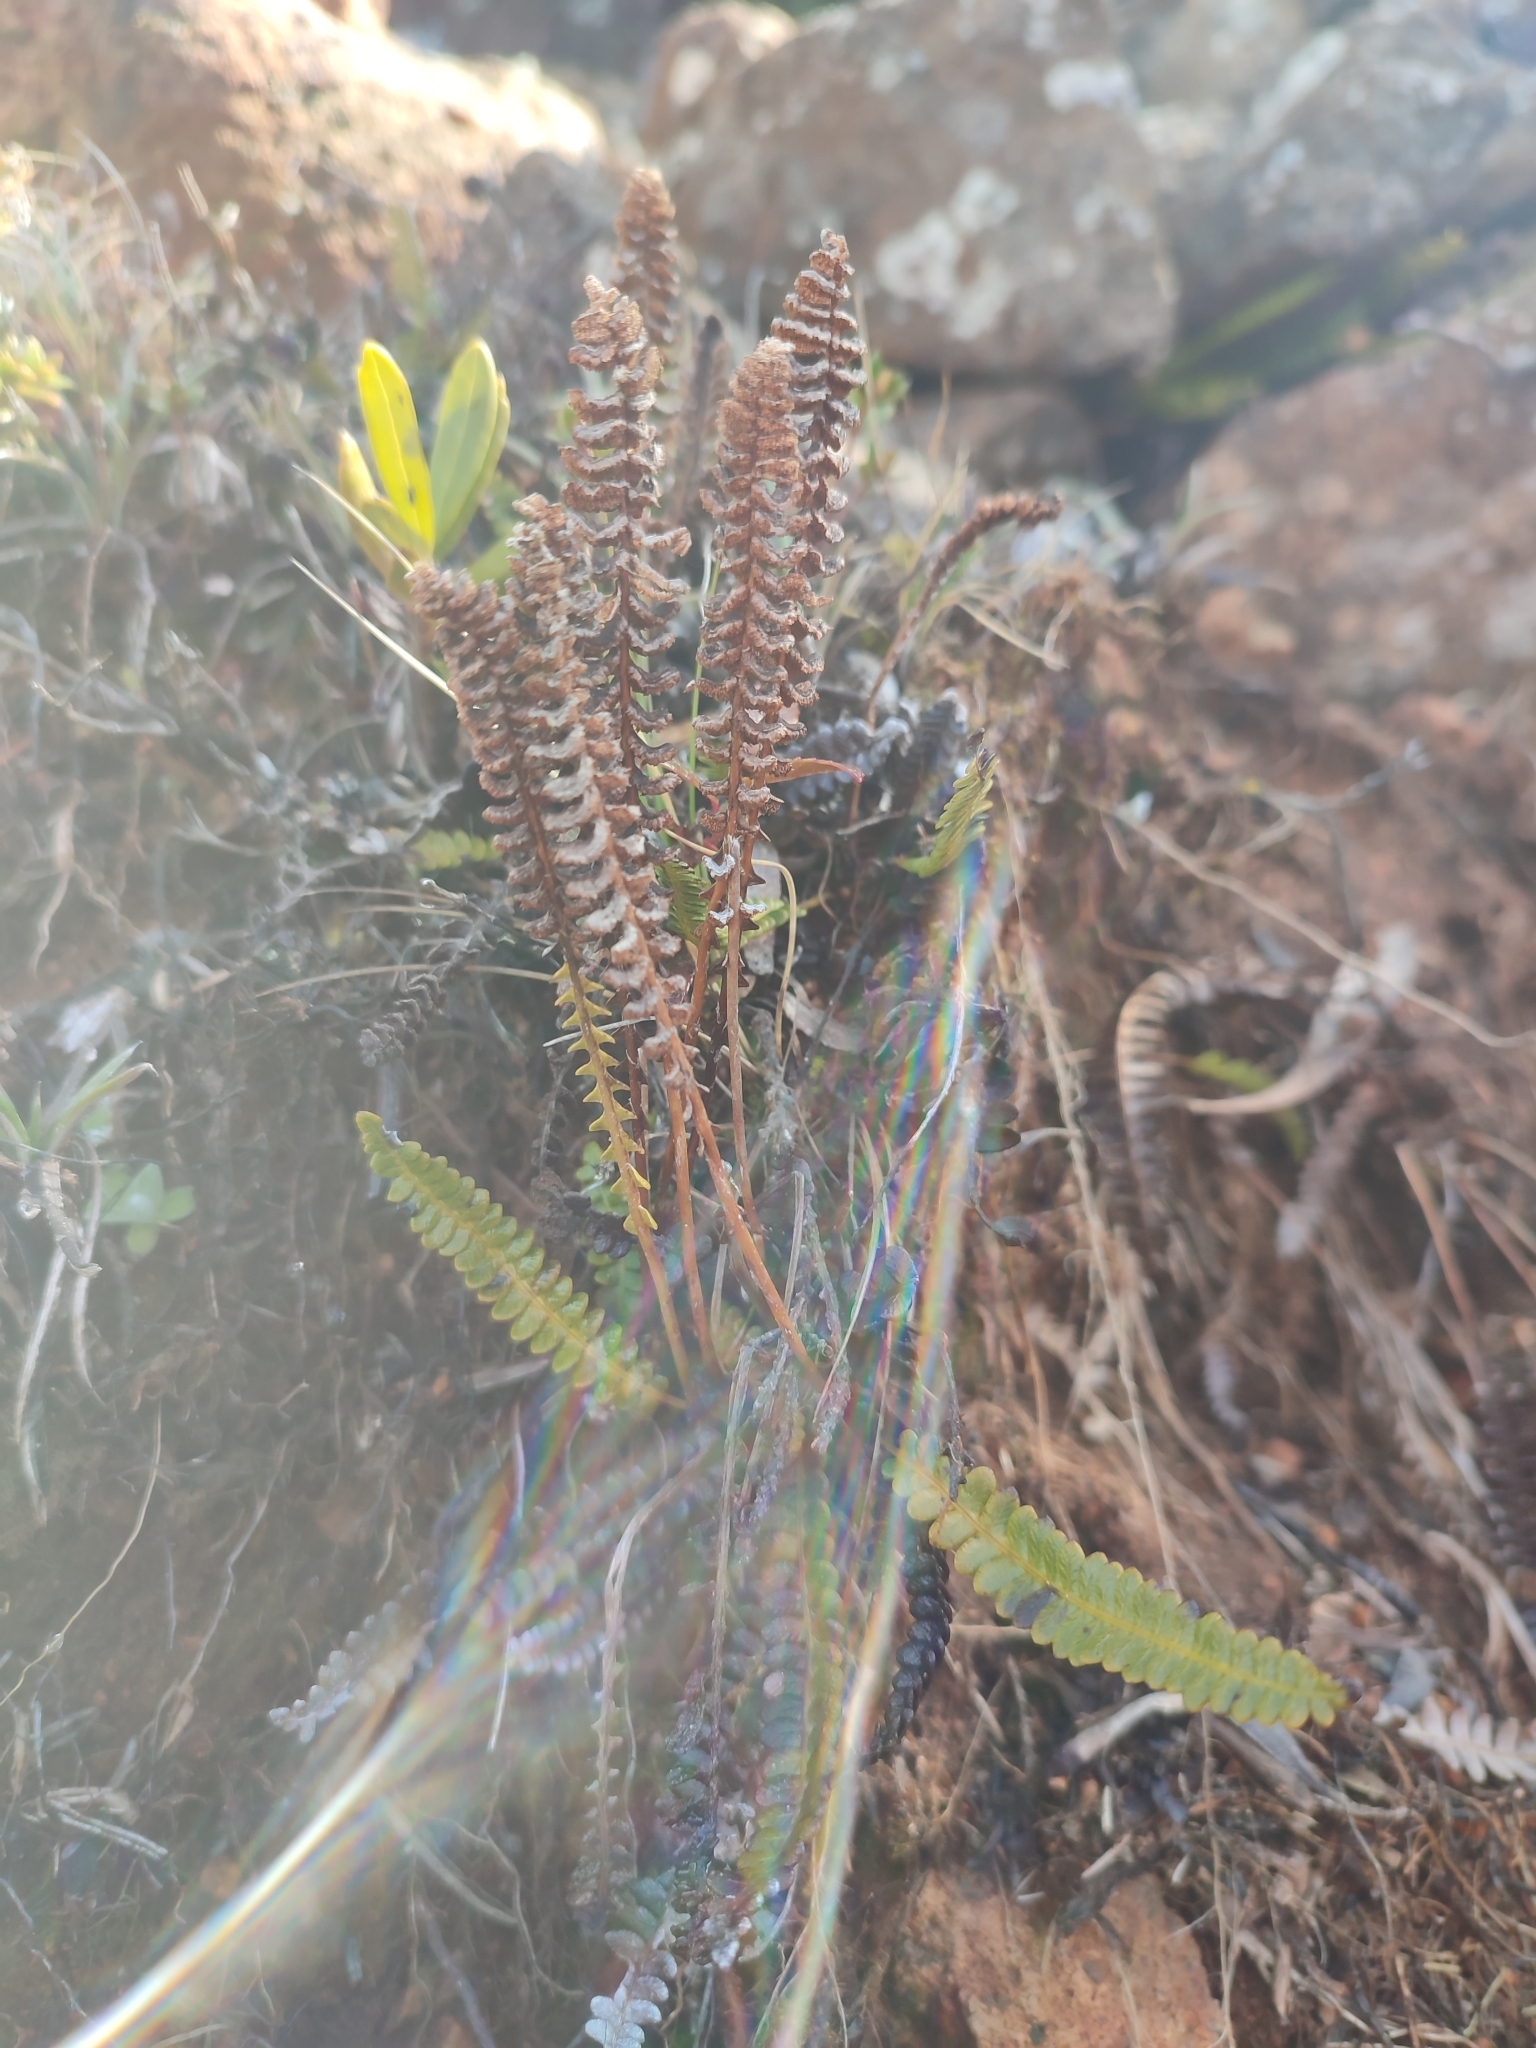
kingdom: Plantae
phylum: Tracheophyta
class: Polypodiopsida
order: Polypodiales
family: Blechnaceae
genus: Austroblechnum
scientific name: Austroblechnum penna-marina
